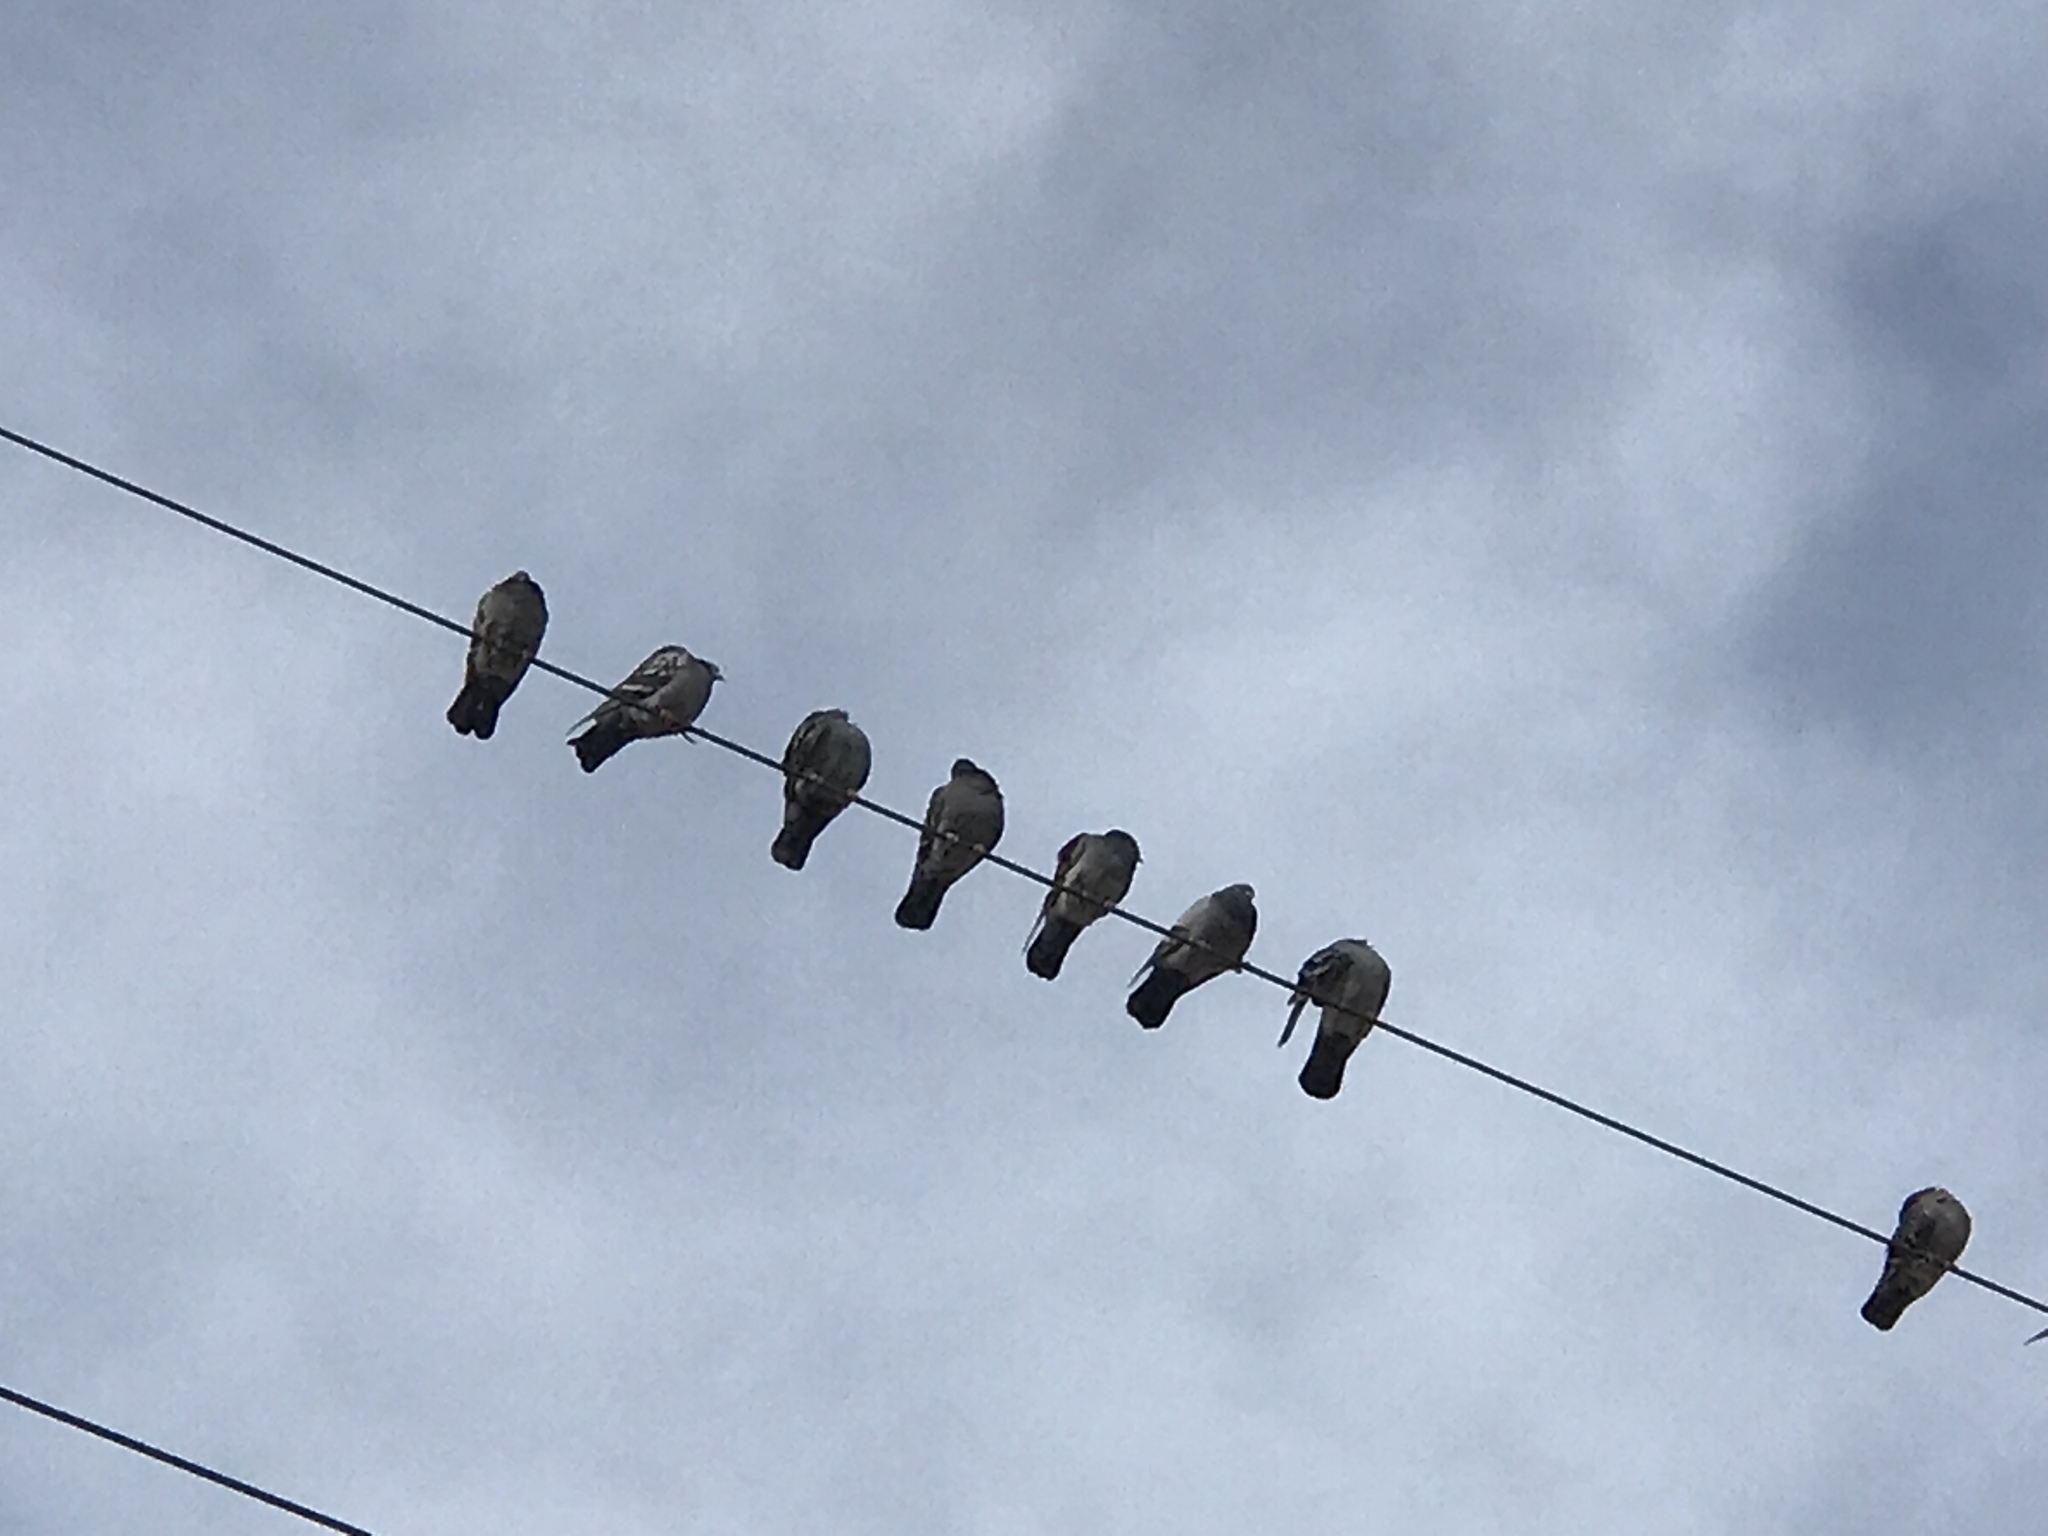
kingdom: Animalia
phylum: Chordata
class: Aves
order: Columbiformes
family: Columbidae
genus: Columba
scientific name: Columba livia
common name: Rock pigeon
